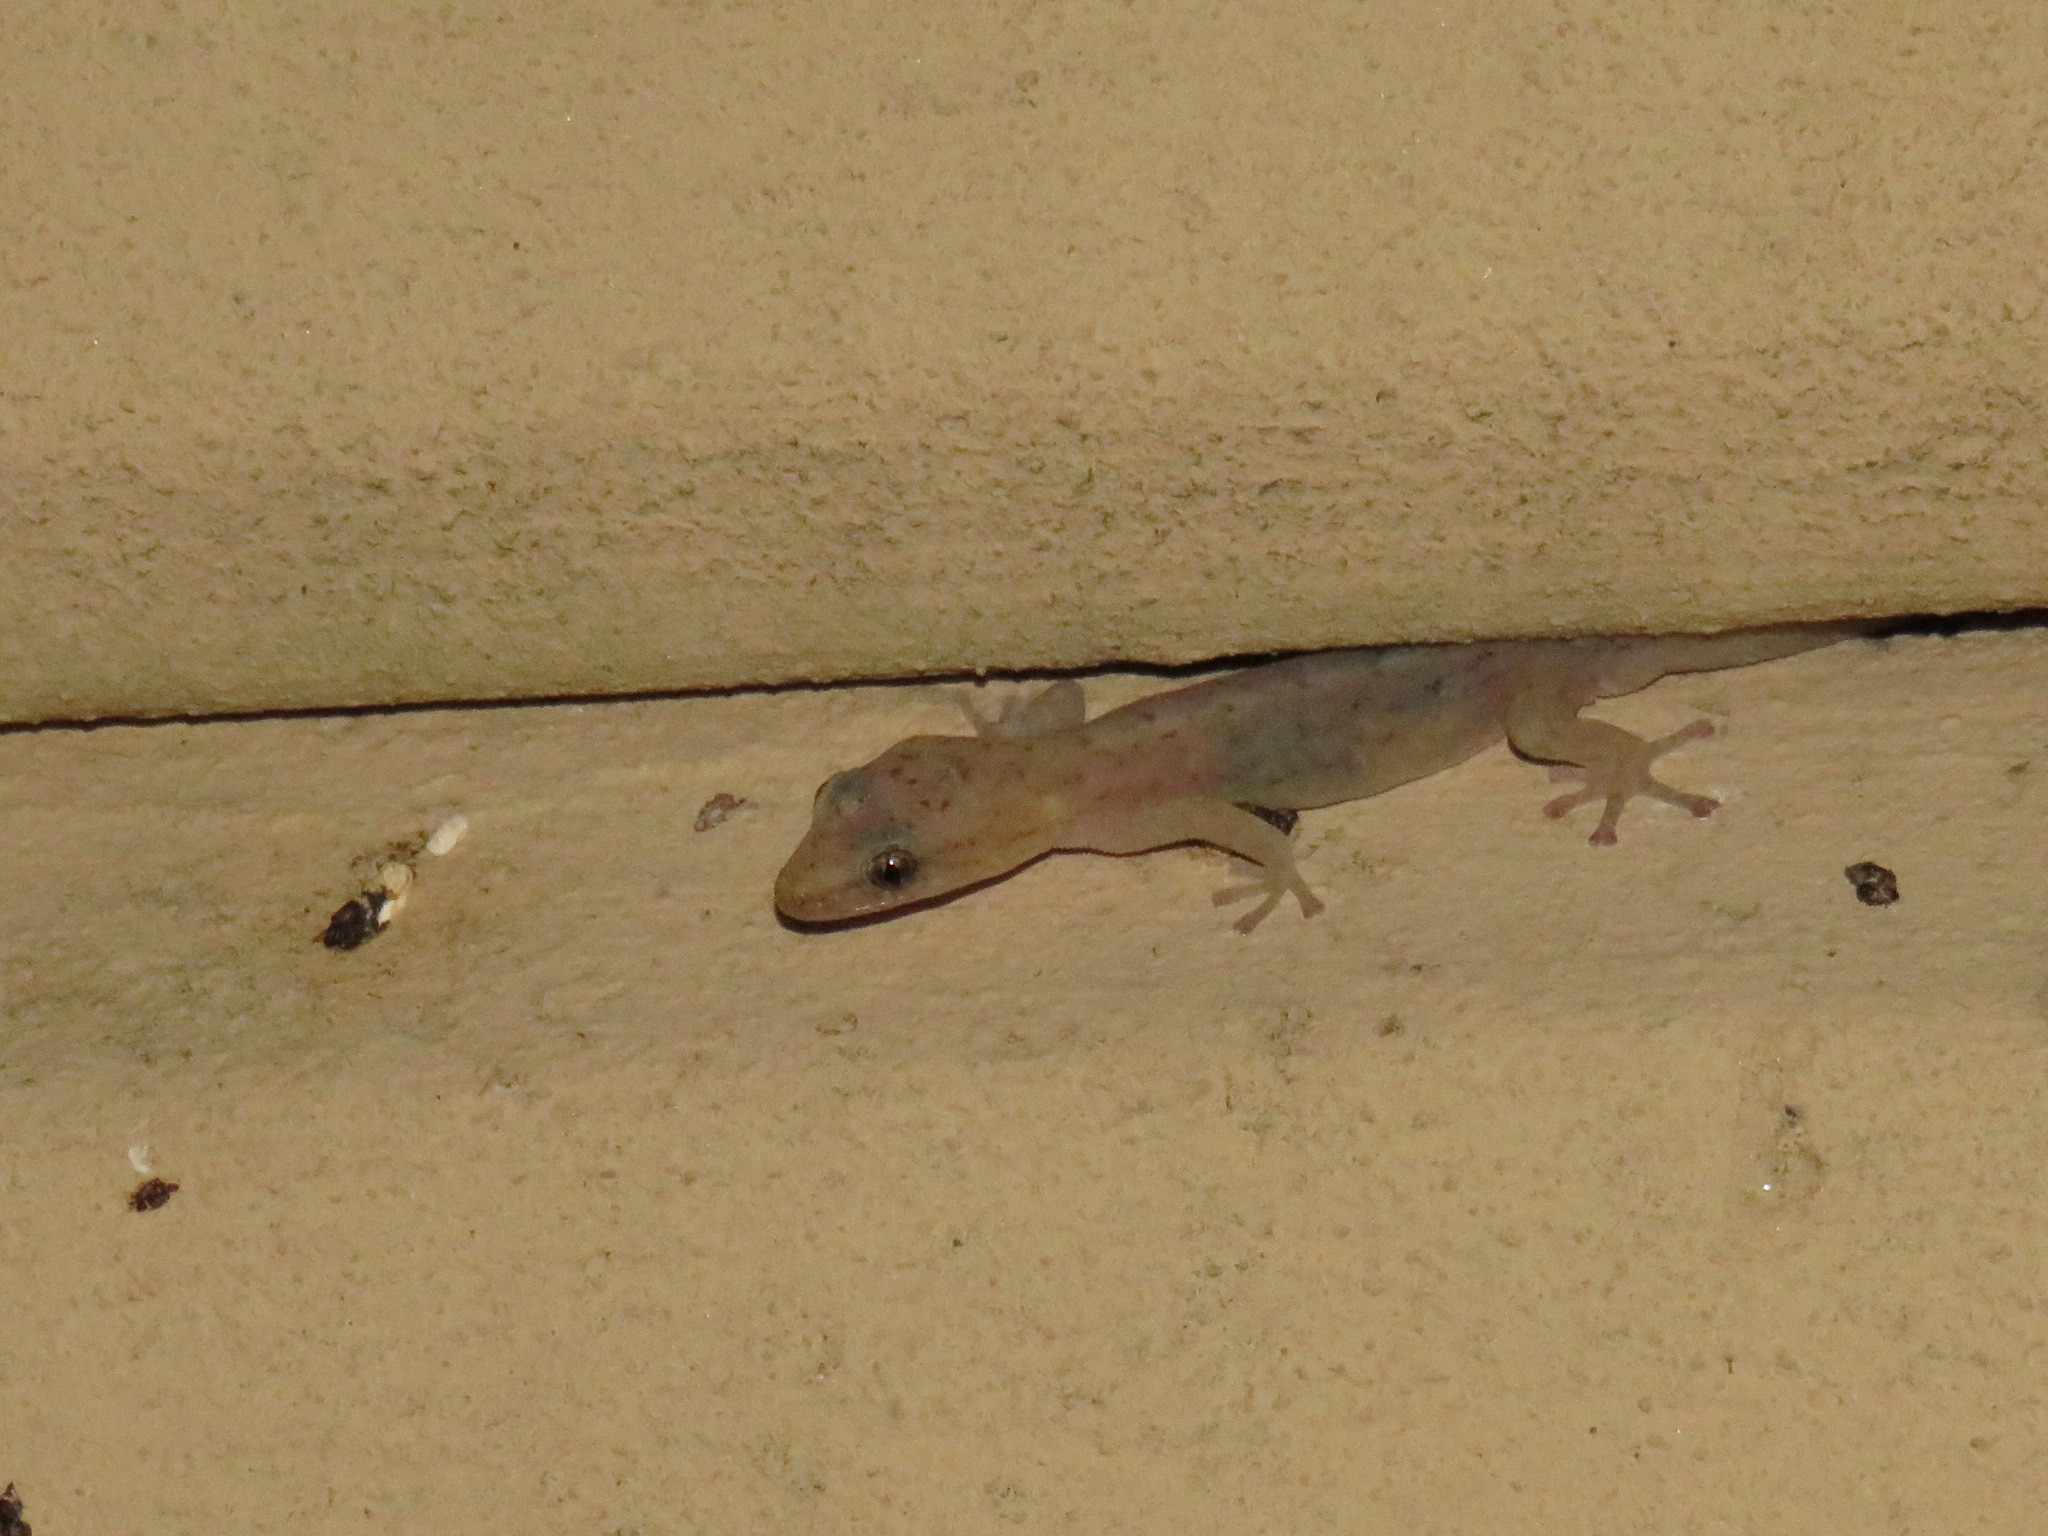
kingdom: Animalia
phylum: Chordata
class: Squamata
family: Gekkonidae
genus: Afrogecko
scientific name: Afrogecko porphyreus
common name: Marbled leaf-toed gecko
